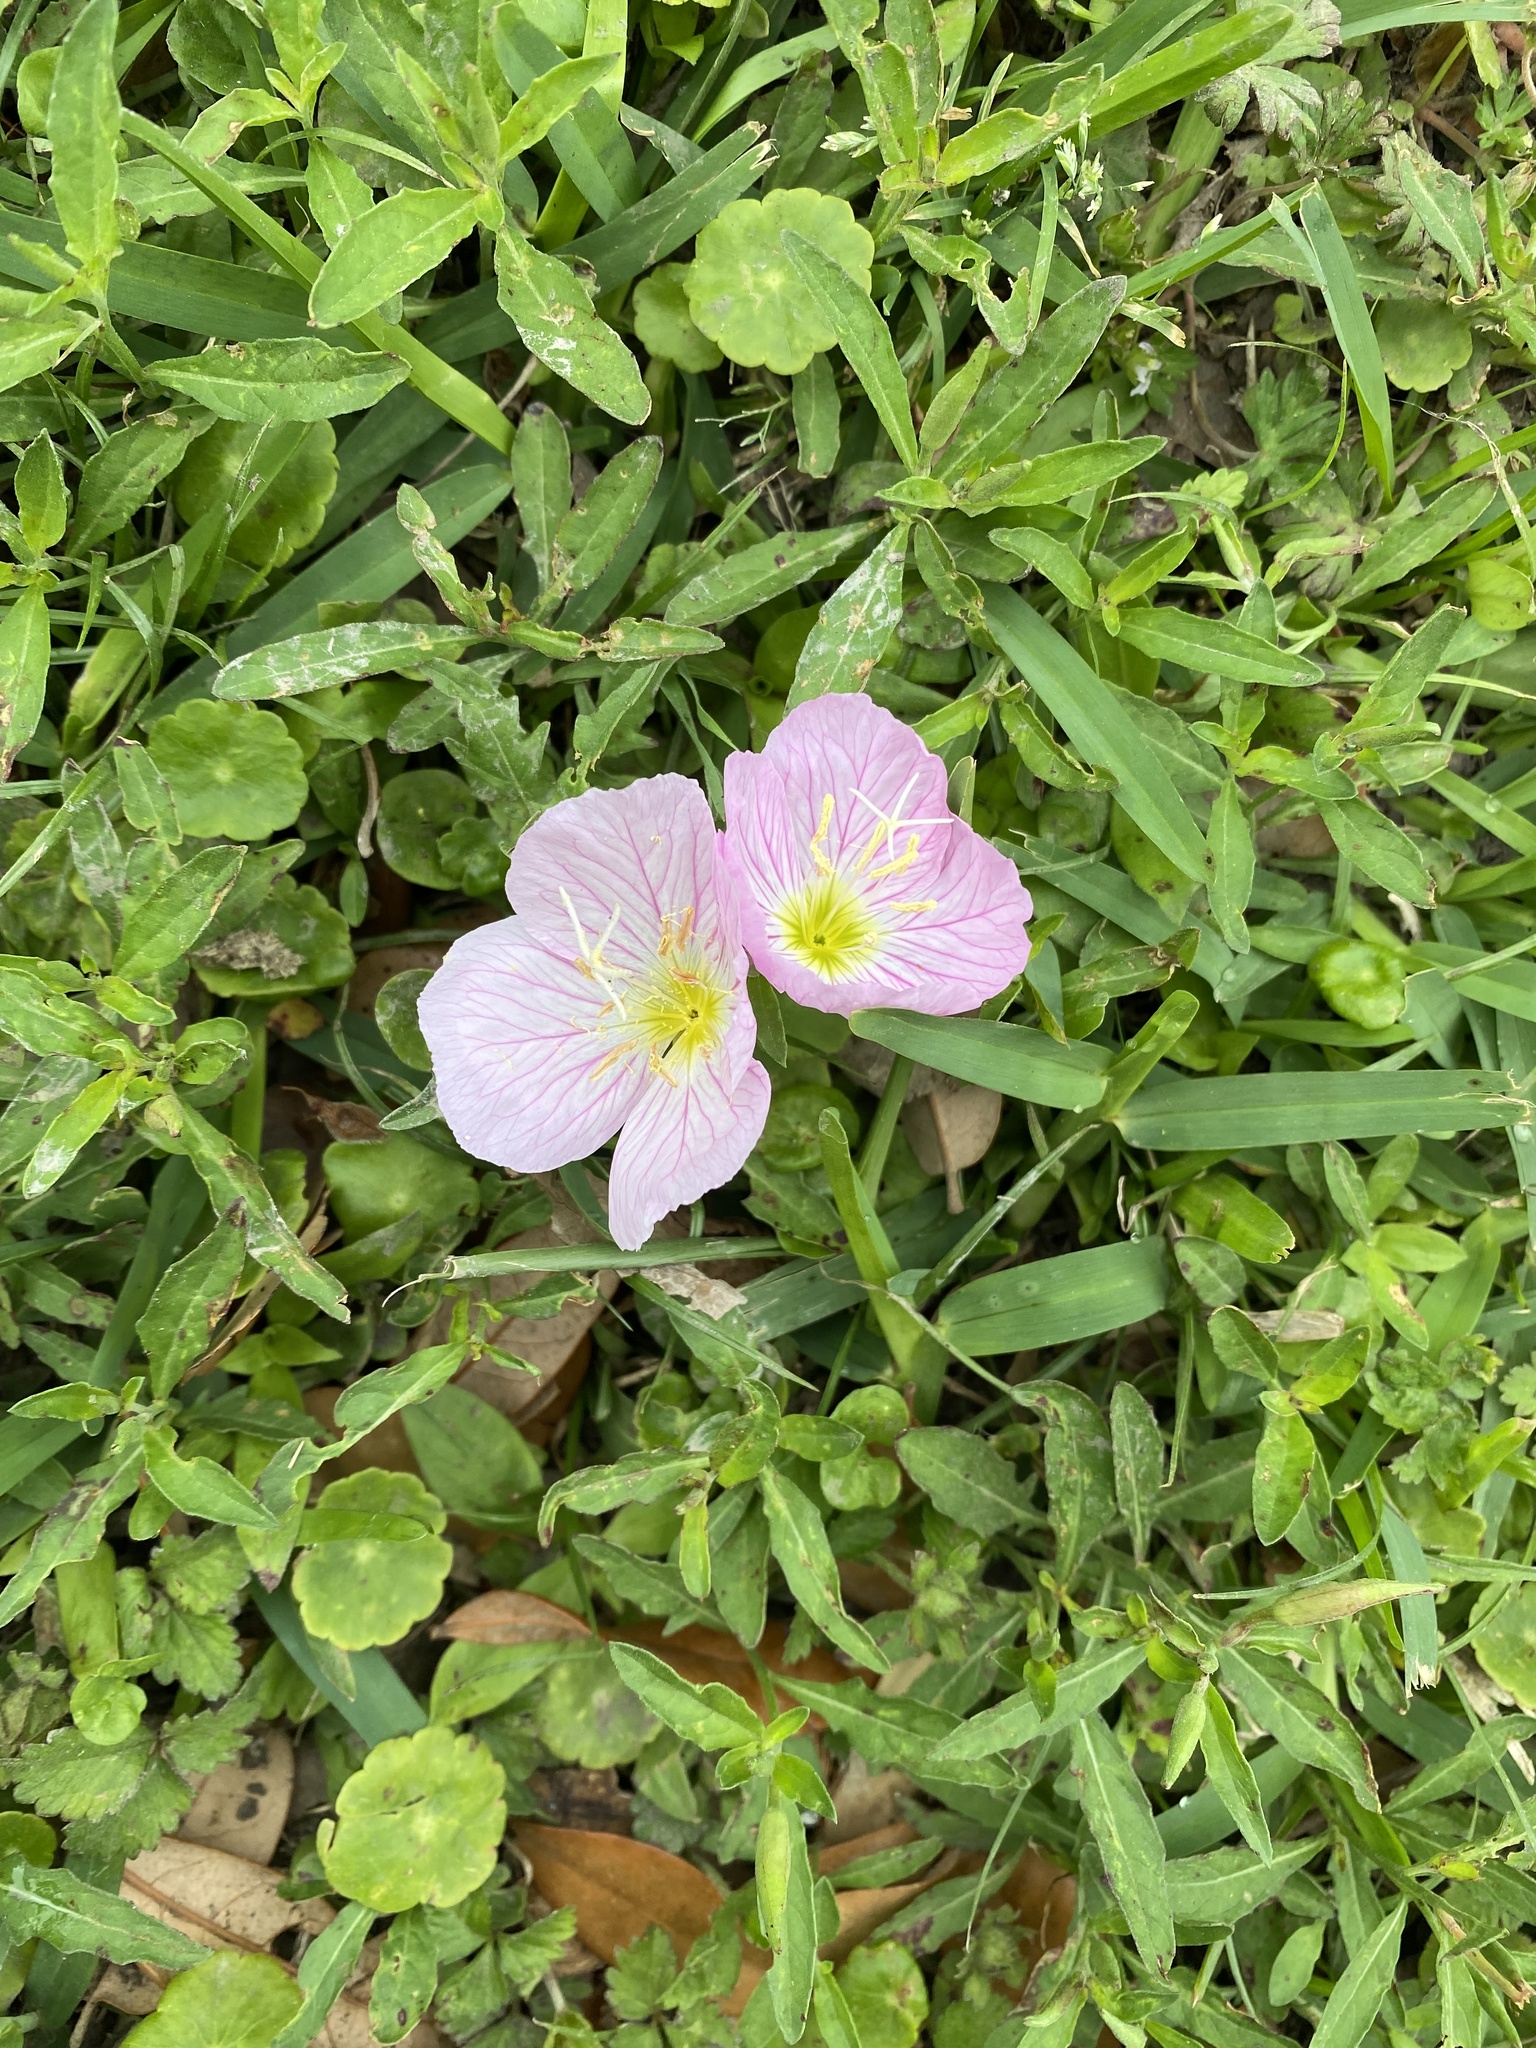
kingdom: Plantae
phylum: Tracheophyta
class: Magnoliopsida
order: Myrtales
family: Onagraceae
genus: Oenothera
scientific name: Oenothera speciosa
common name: White evening-primrose
